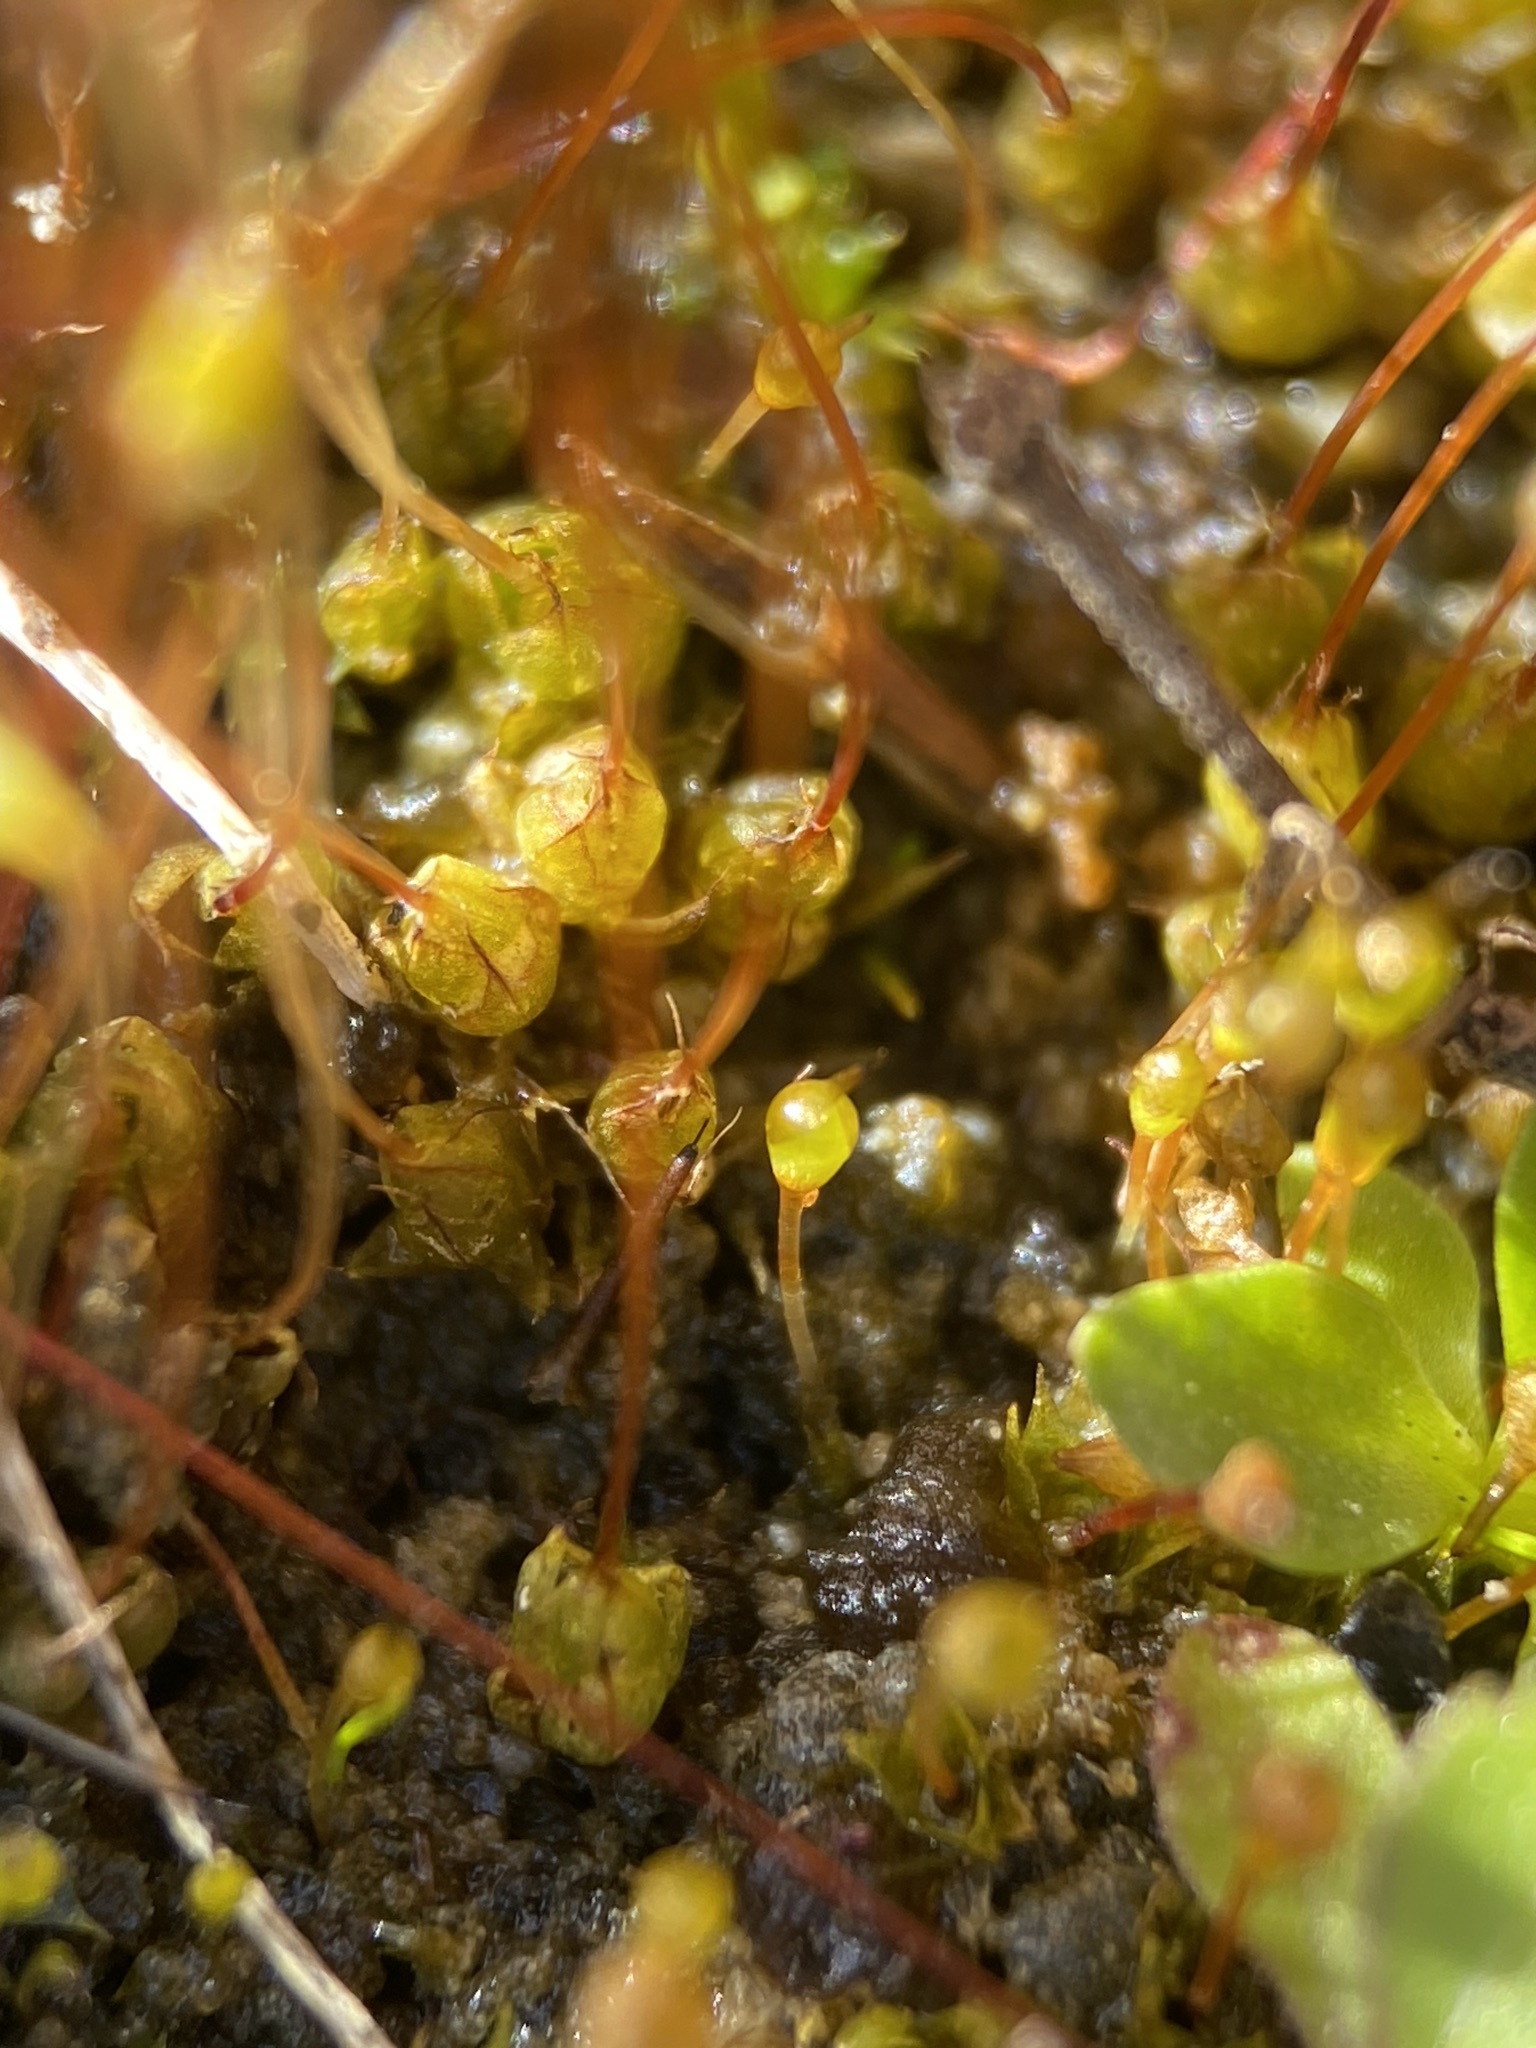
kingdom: Plantae
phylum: Bryophyta
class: Bryopsida
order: Funariales
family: Funariaceae
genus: Physcomitrium
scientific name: Physcomitrium pyriforme
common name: Common bladder-moss
